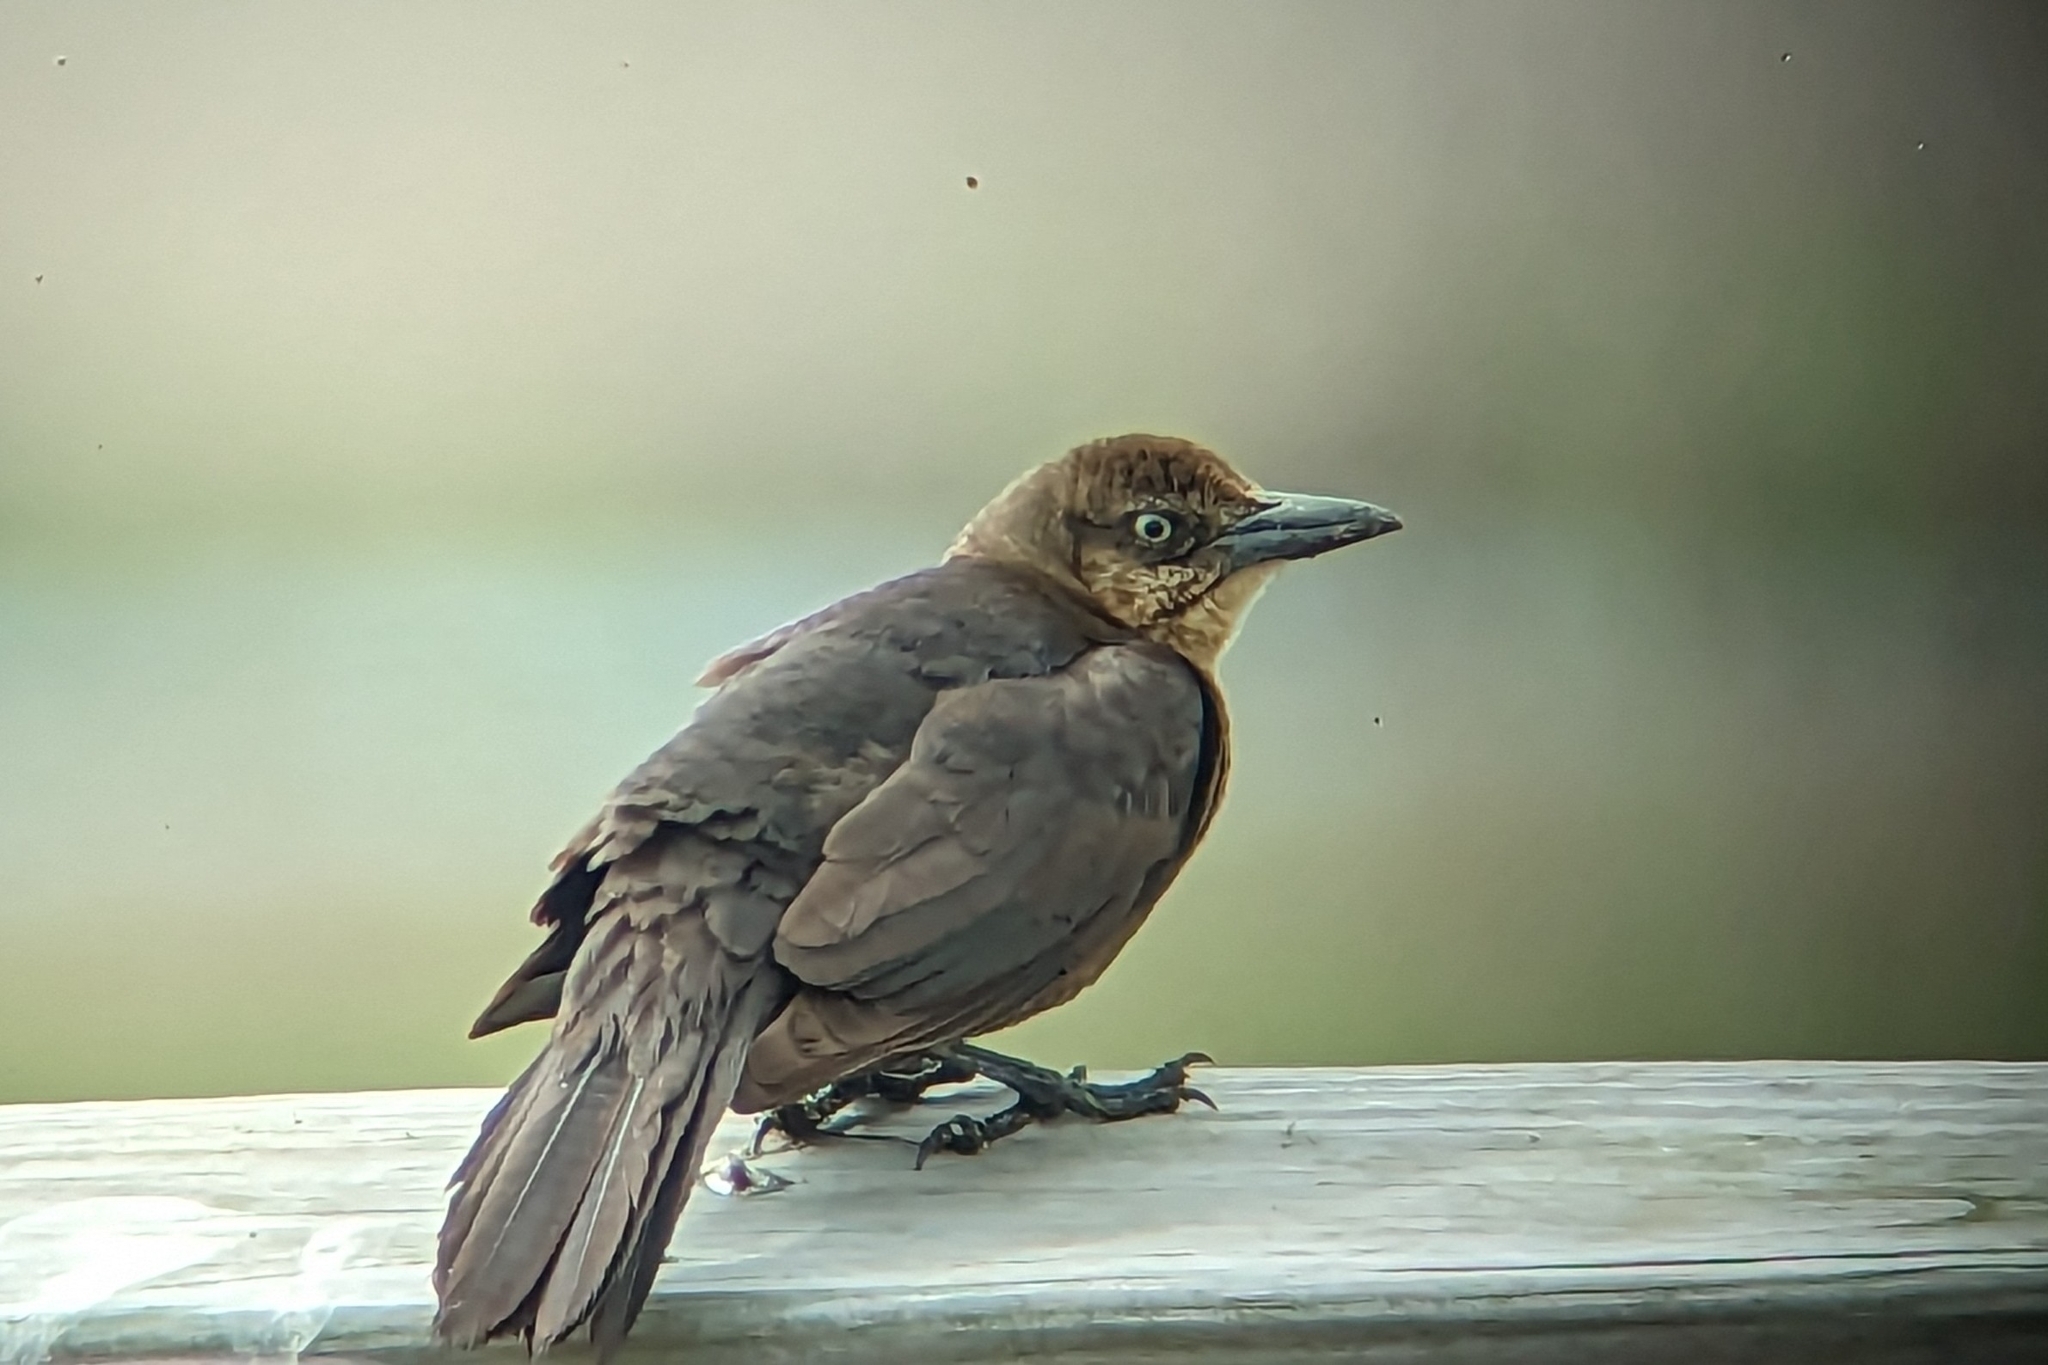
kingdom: Animalia
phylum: Chordata
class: Aves
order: Passeriformes
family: Icteridae
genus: Quiscalus
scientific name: Quiscalus mexicanus
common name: Great-tailed grackle
